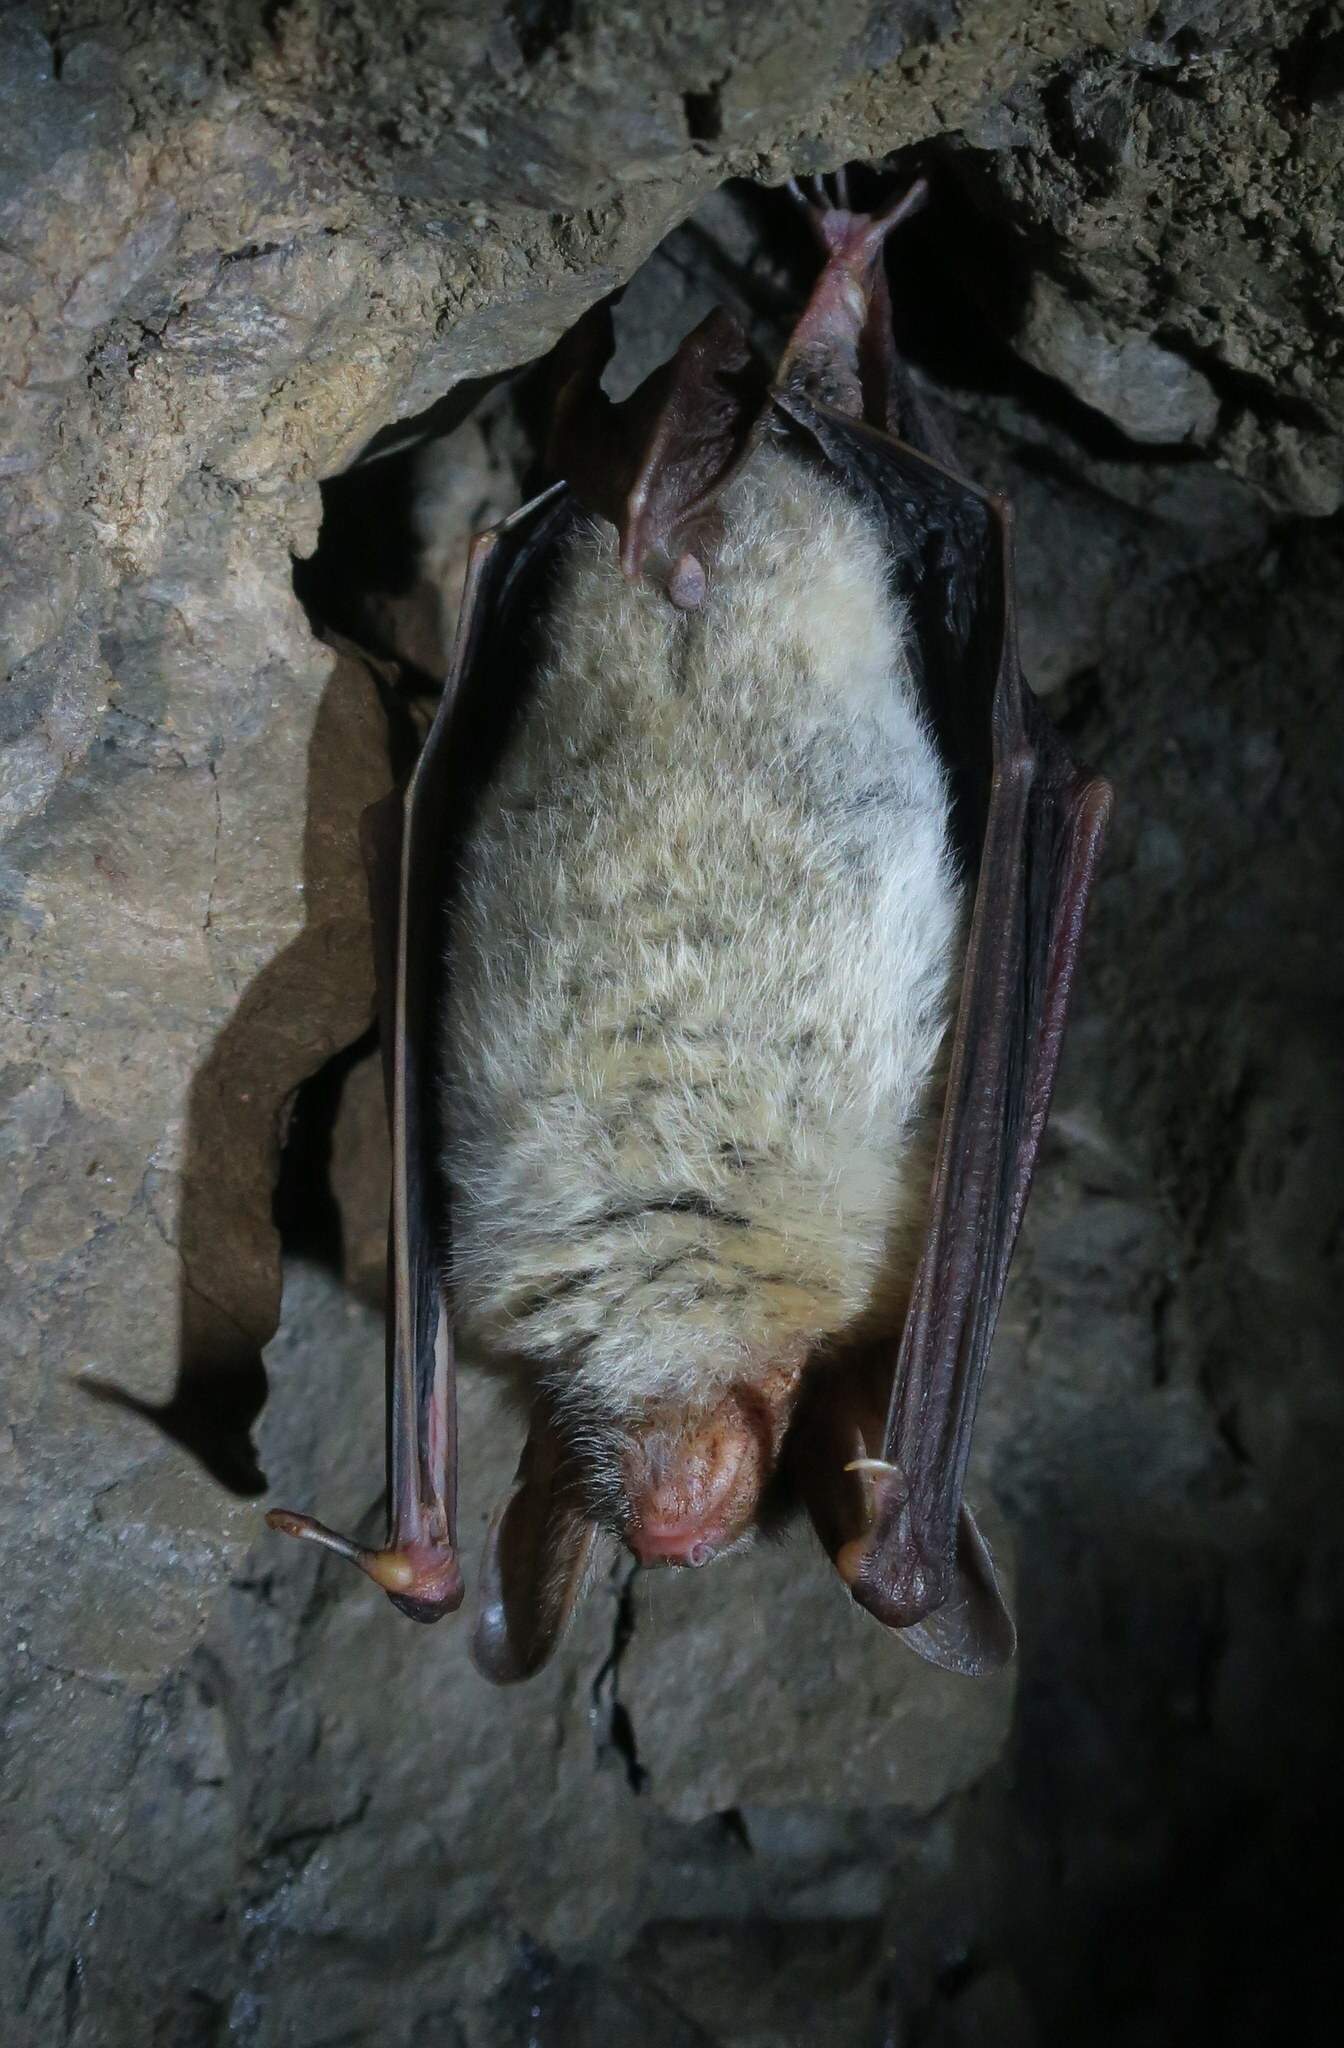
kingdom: Animalia
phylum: Chordata
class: Mammalia
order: Chiroptera
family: Vespertilionidae
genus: Myotis
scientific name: Myotis myotis
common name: Greater mouse-eared bat
